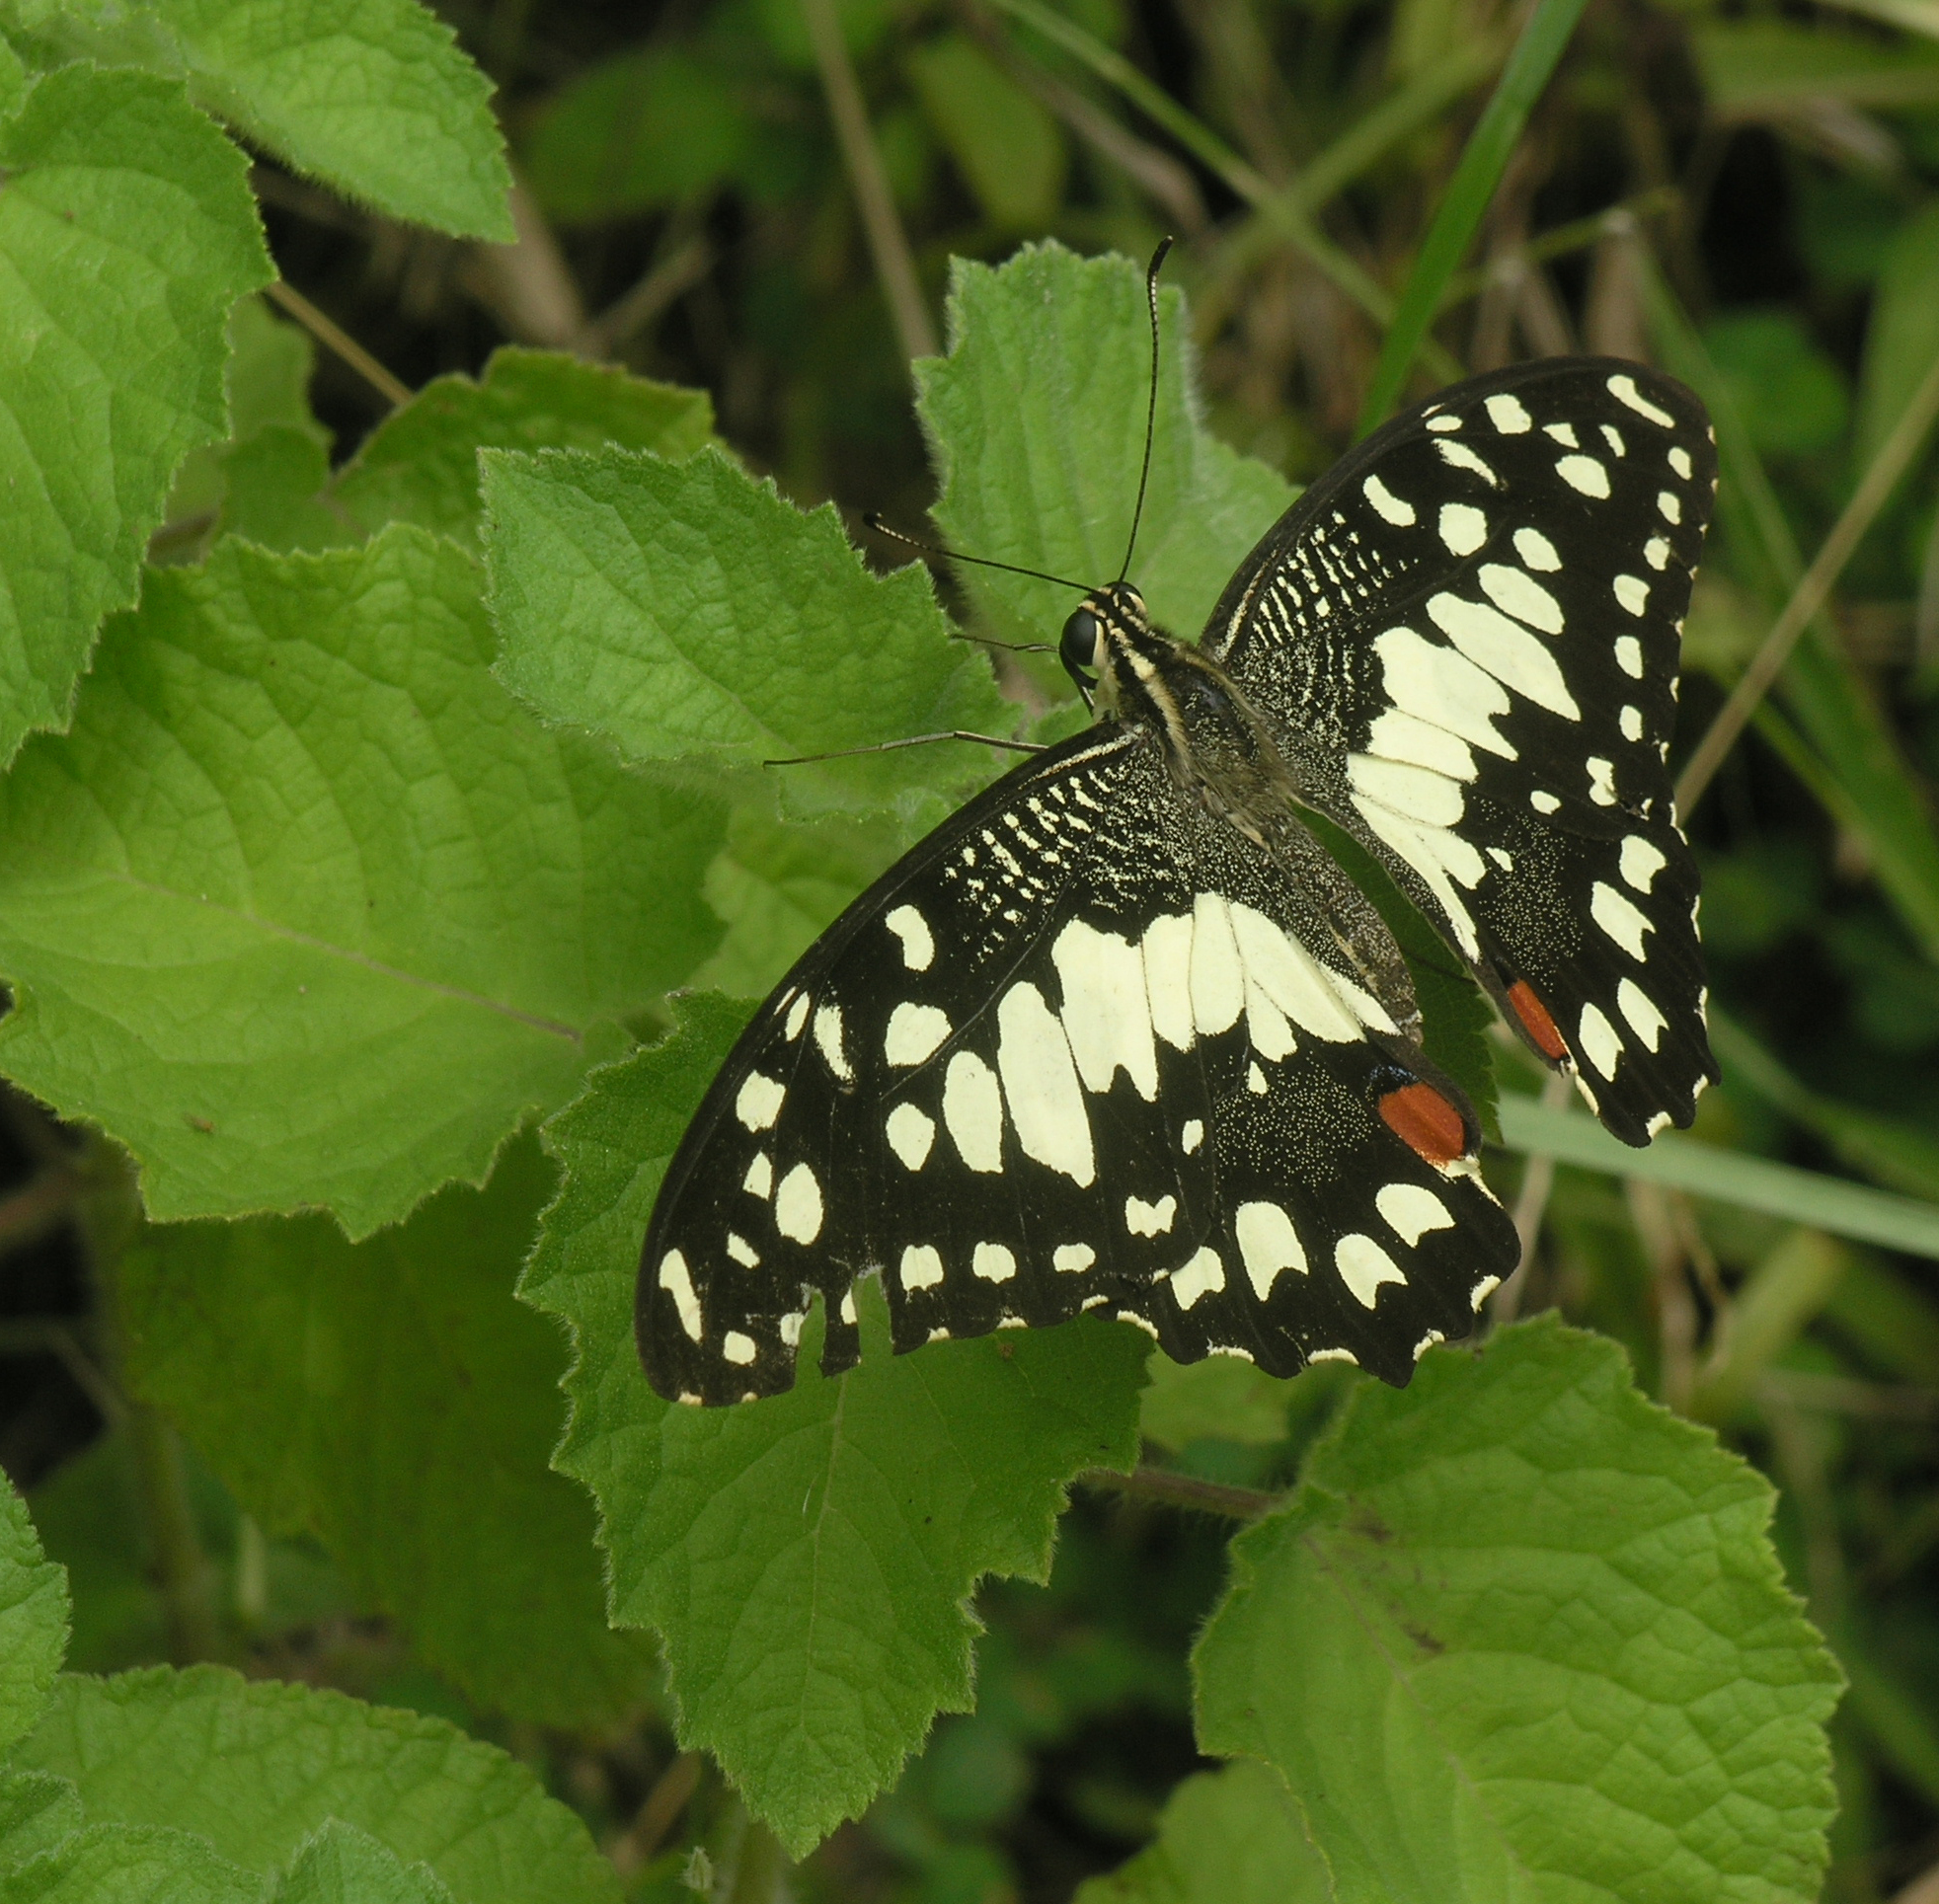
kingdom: Animalia
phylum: Arthropoda
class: Insecta
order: Lepidoptera
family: Papilionidae
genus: Papilio
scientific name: Papilio demoleus
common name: Lime butterfly
